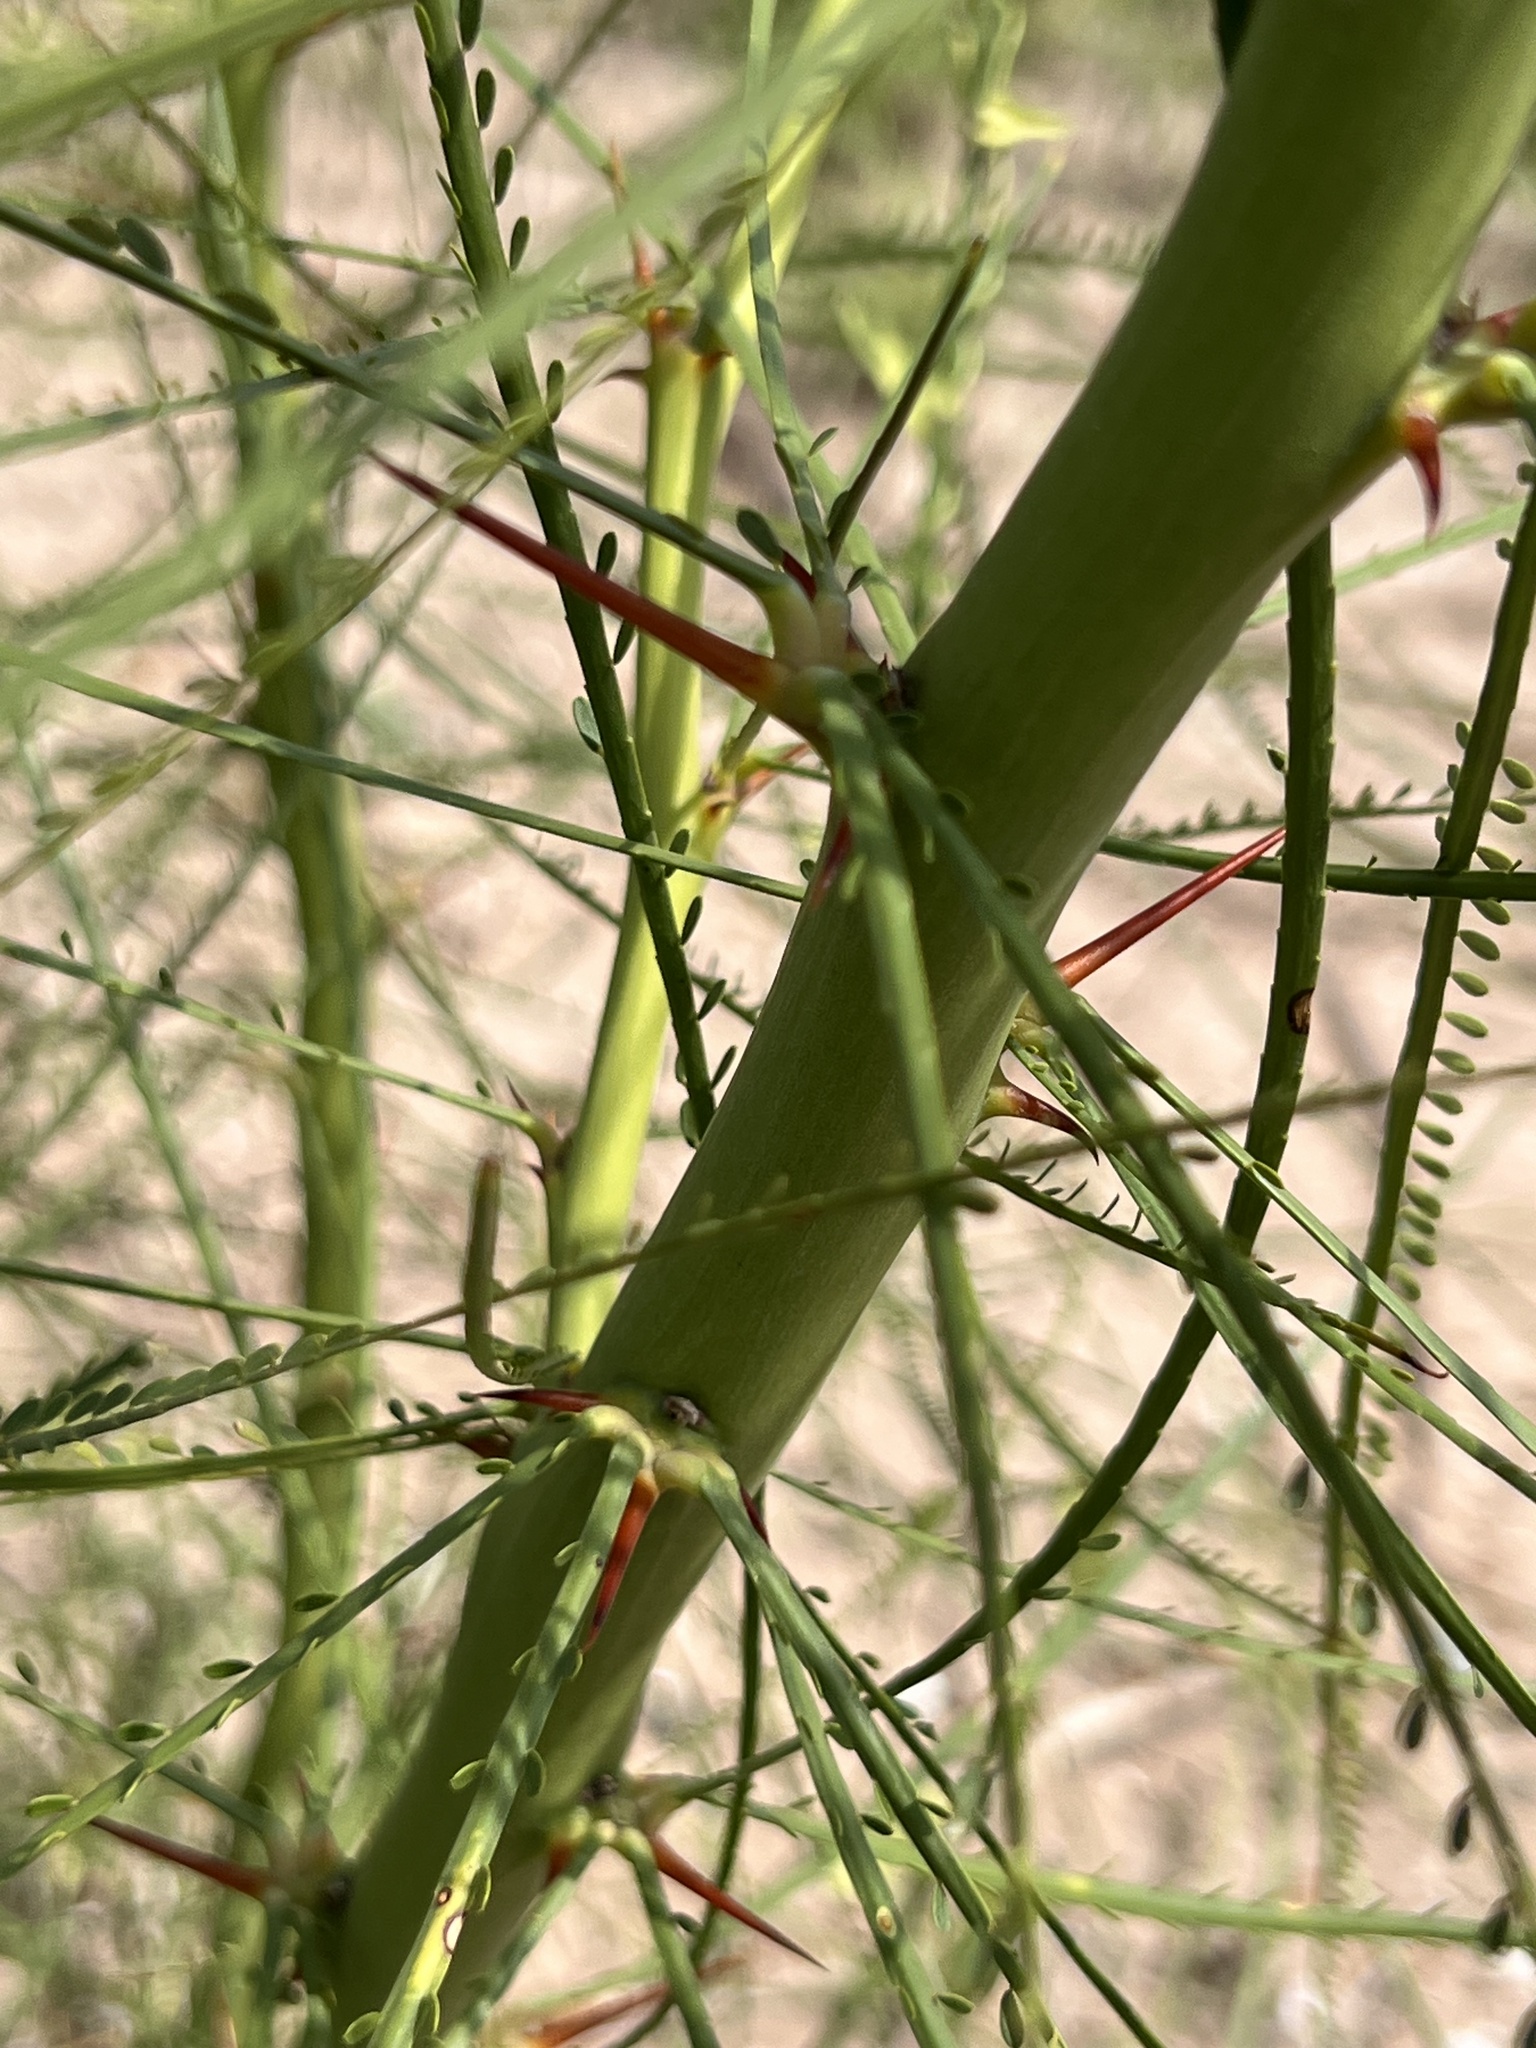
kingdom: Plantae
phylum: Tracheophyta
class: Magnoliopsida
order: Fabales
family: Fabaceae
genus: Parkinsonia
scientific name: Parkinsonia aculeata
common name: Jerusalem thorn
